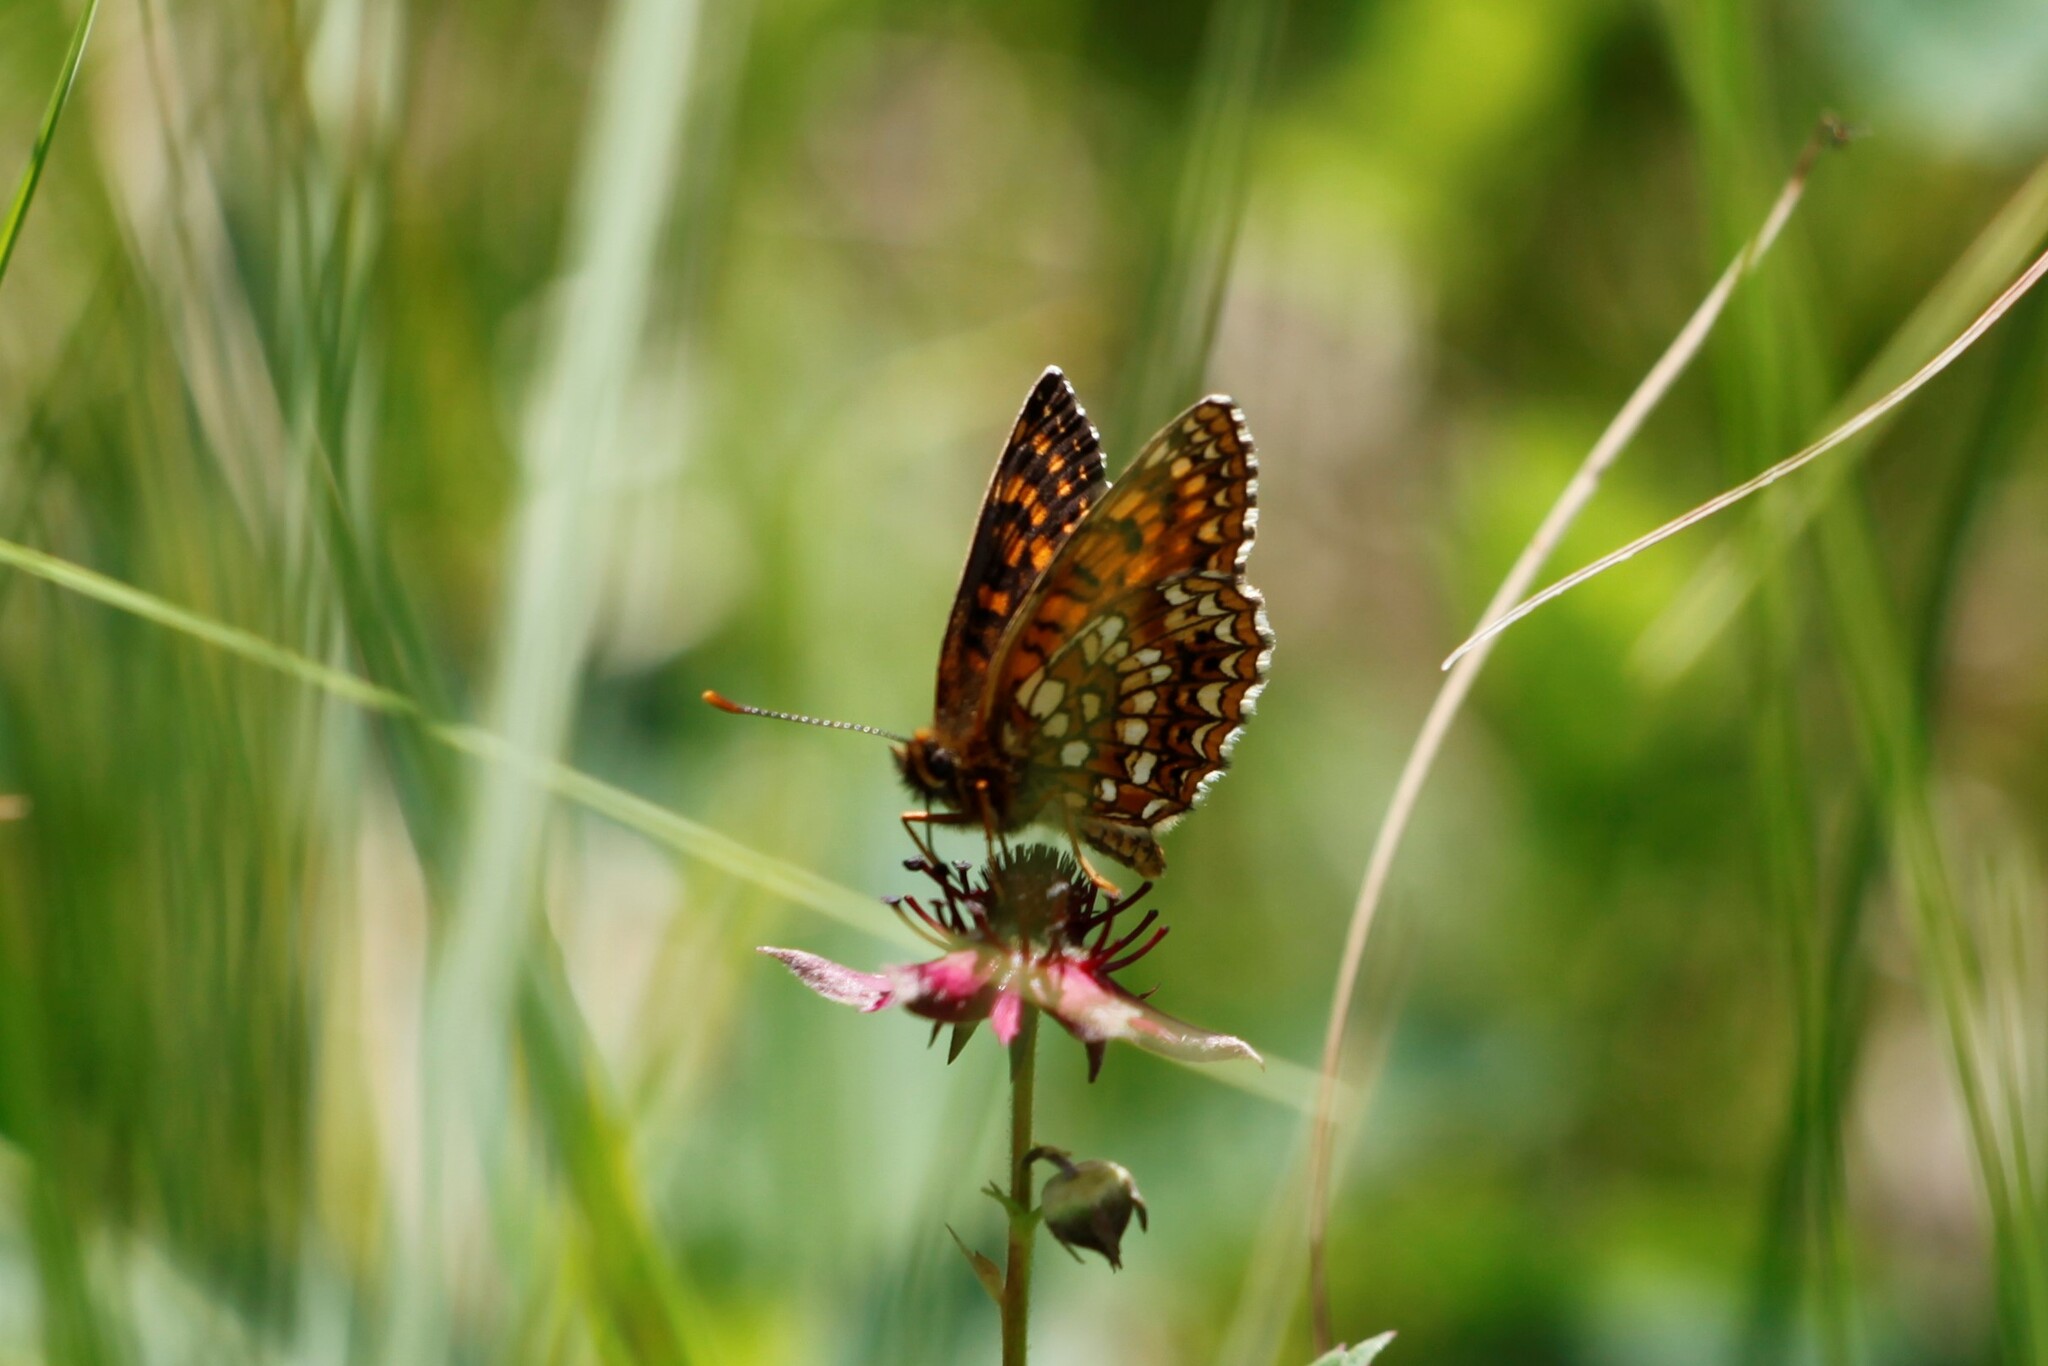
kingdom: Animalia
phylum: Arthropoda
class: Insecta
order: Lepidoptera
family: Nymphalidae
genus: Melitaea
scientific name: Melitaea diamina
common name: False heath fritillary
